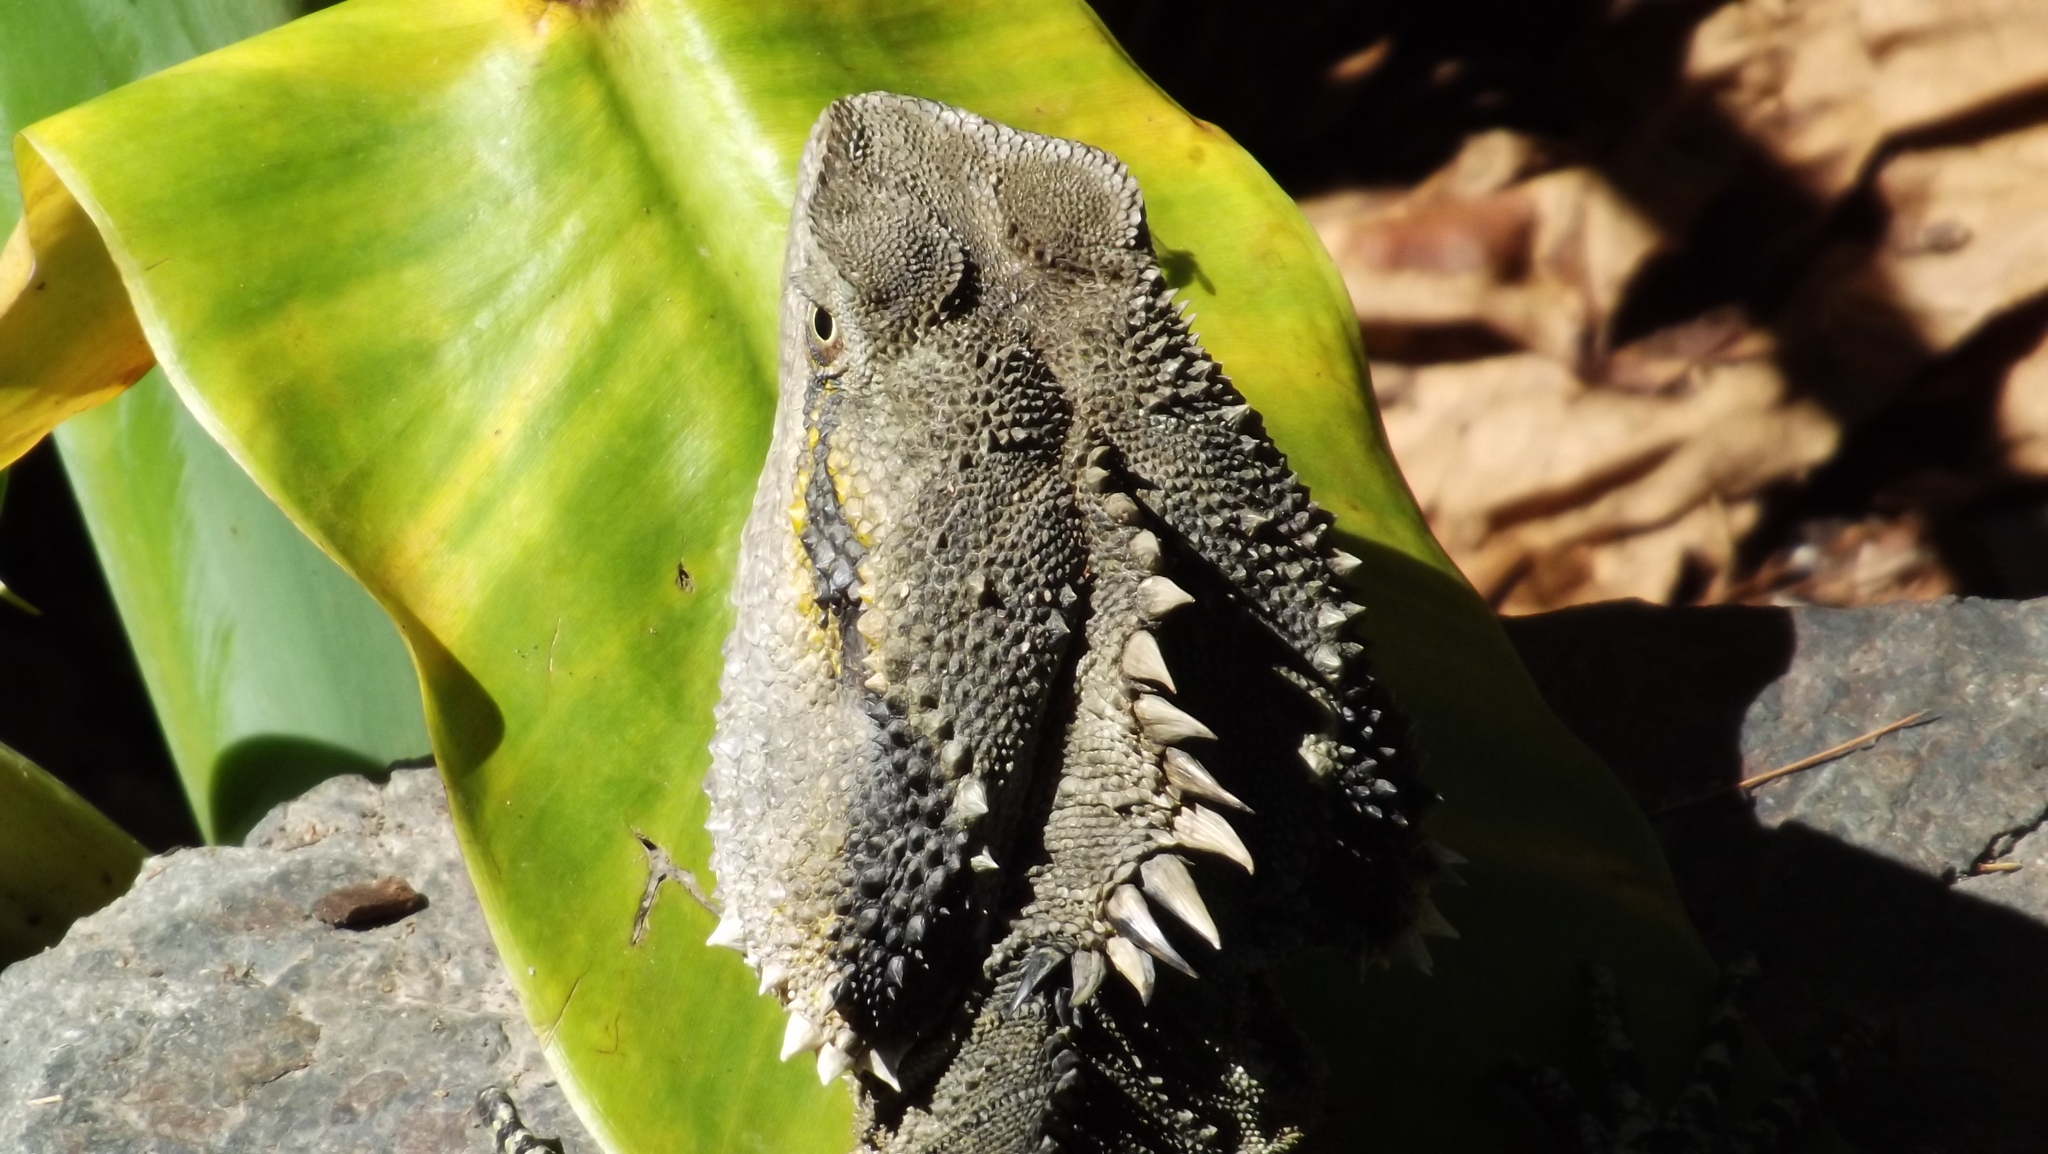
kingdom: Animalia
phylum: Chordata
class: Squamata
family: Agamidae
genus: Intellagama
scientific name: Intellagama lesueurii
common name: Eastern water dragon
